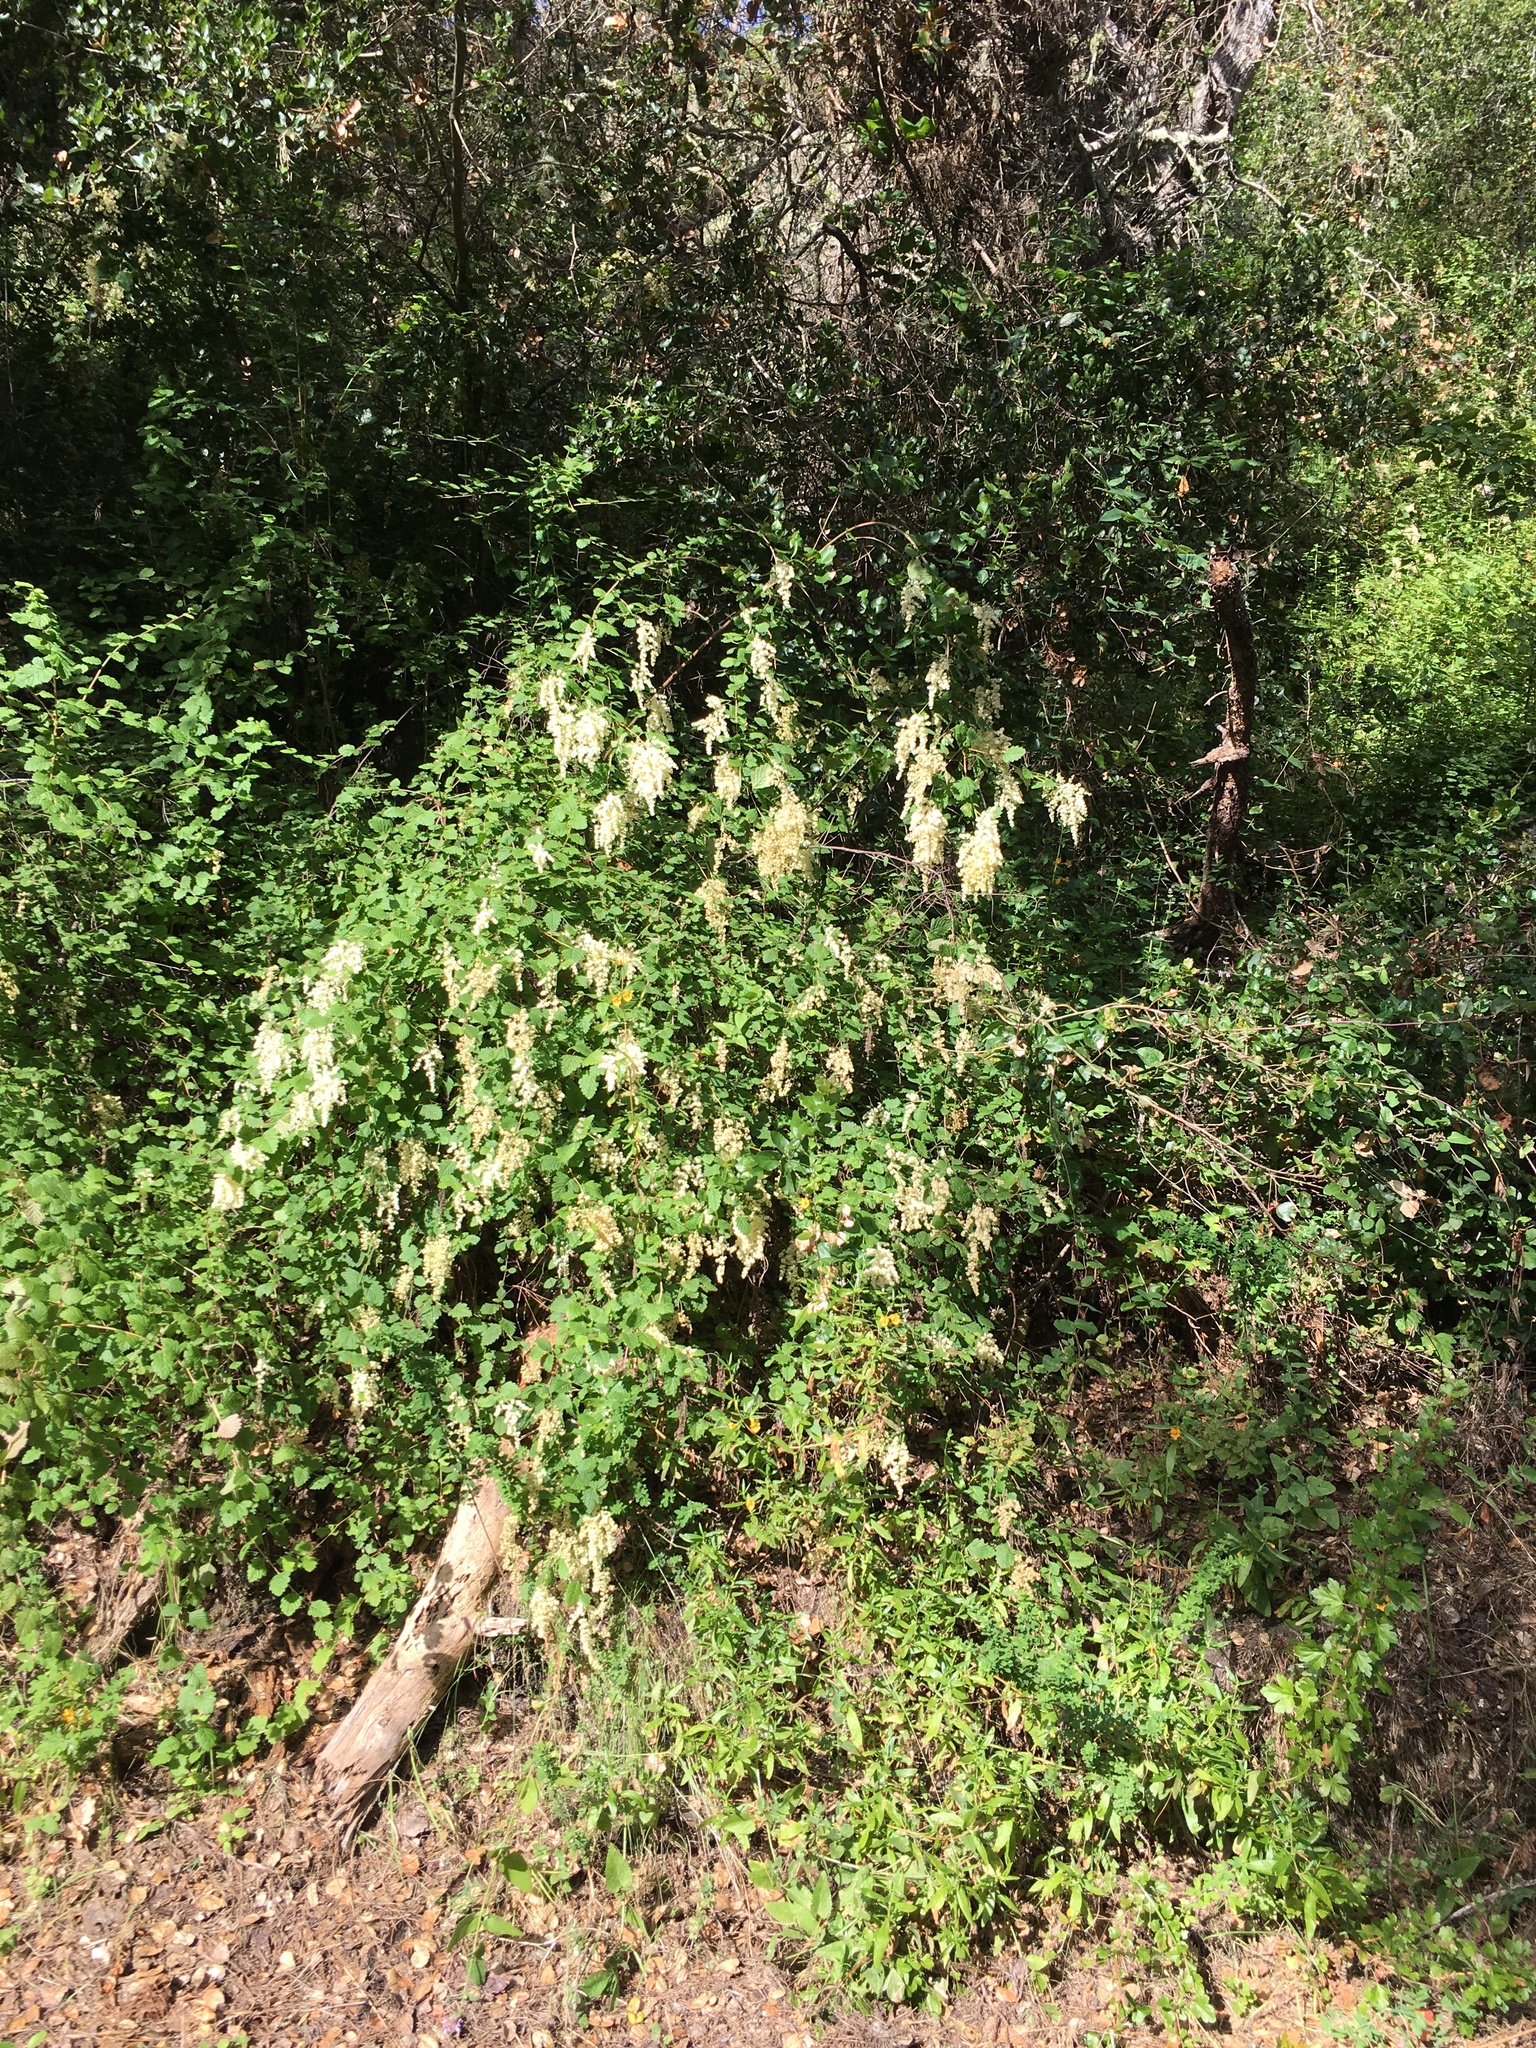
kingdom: Plantae
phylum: Tracheophyta
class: Magnoliopsida
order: Rosales
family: Rosaceae
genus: Holodiscus
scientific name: Holodiscus discolor
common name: Oceanspray
